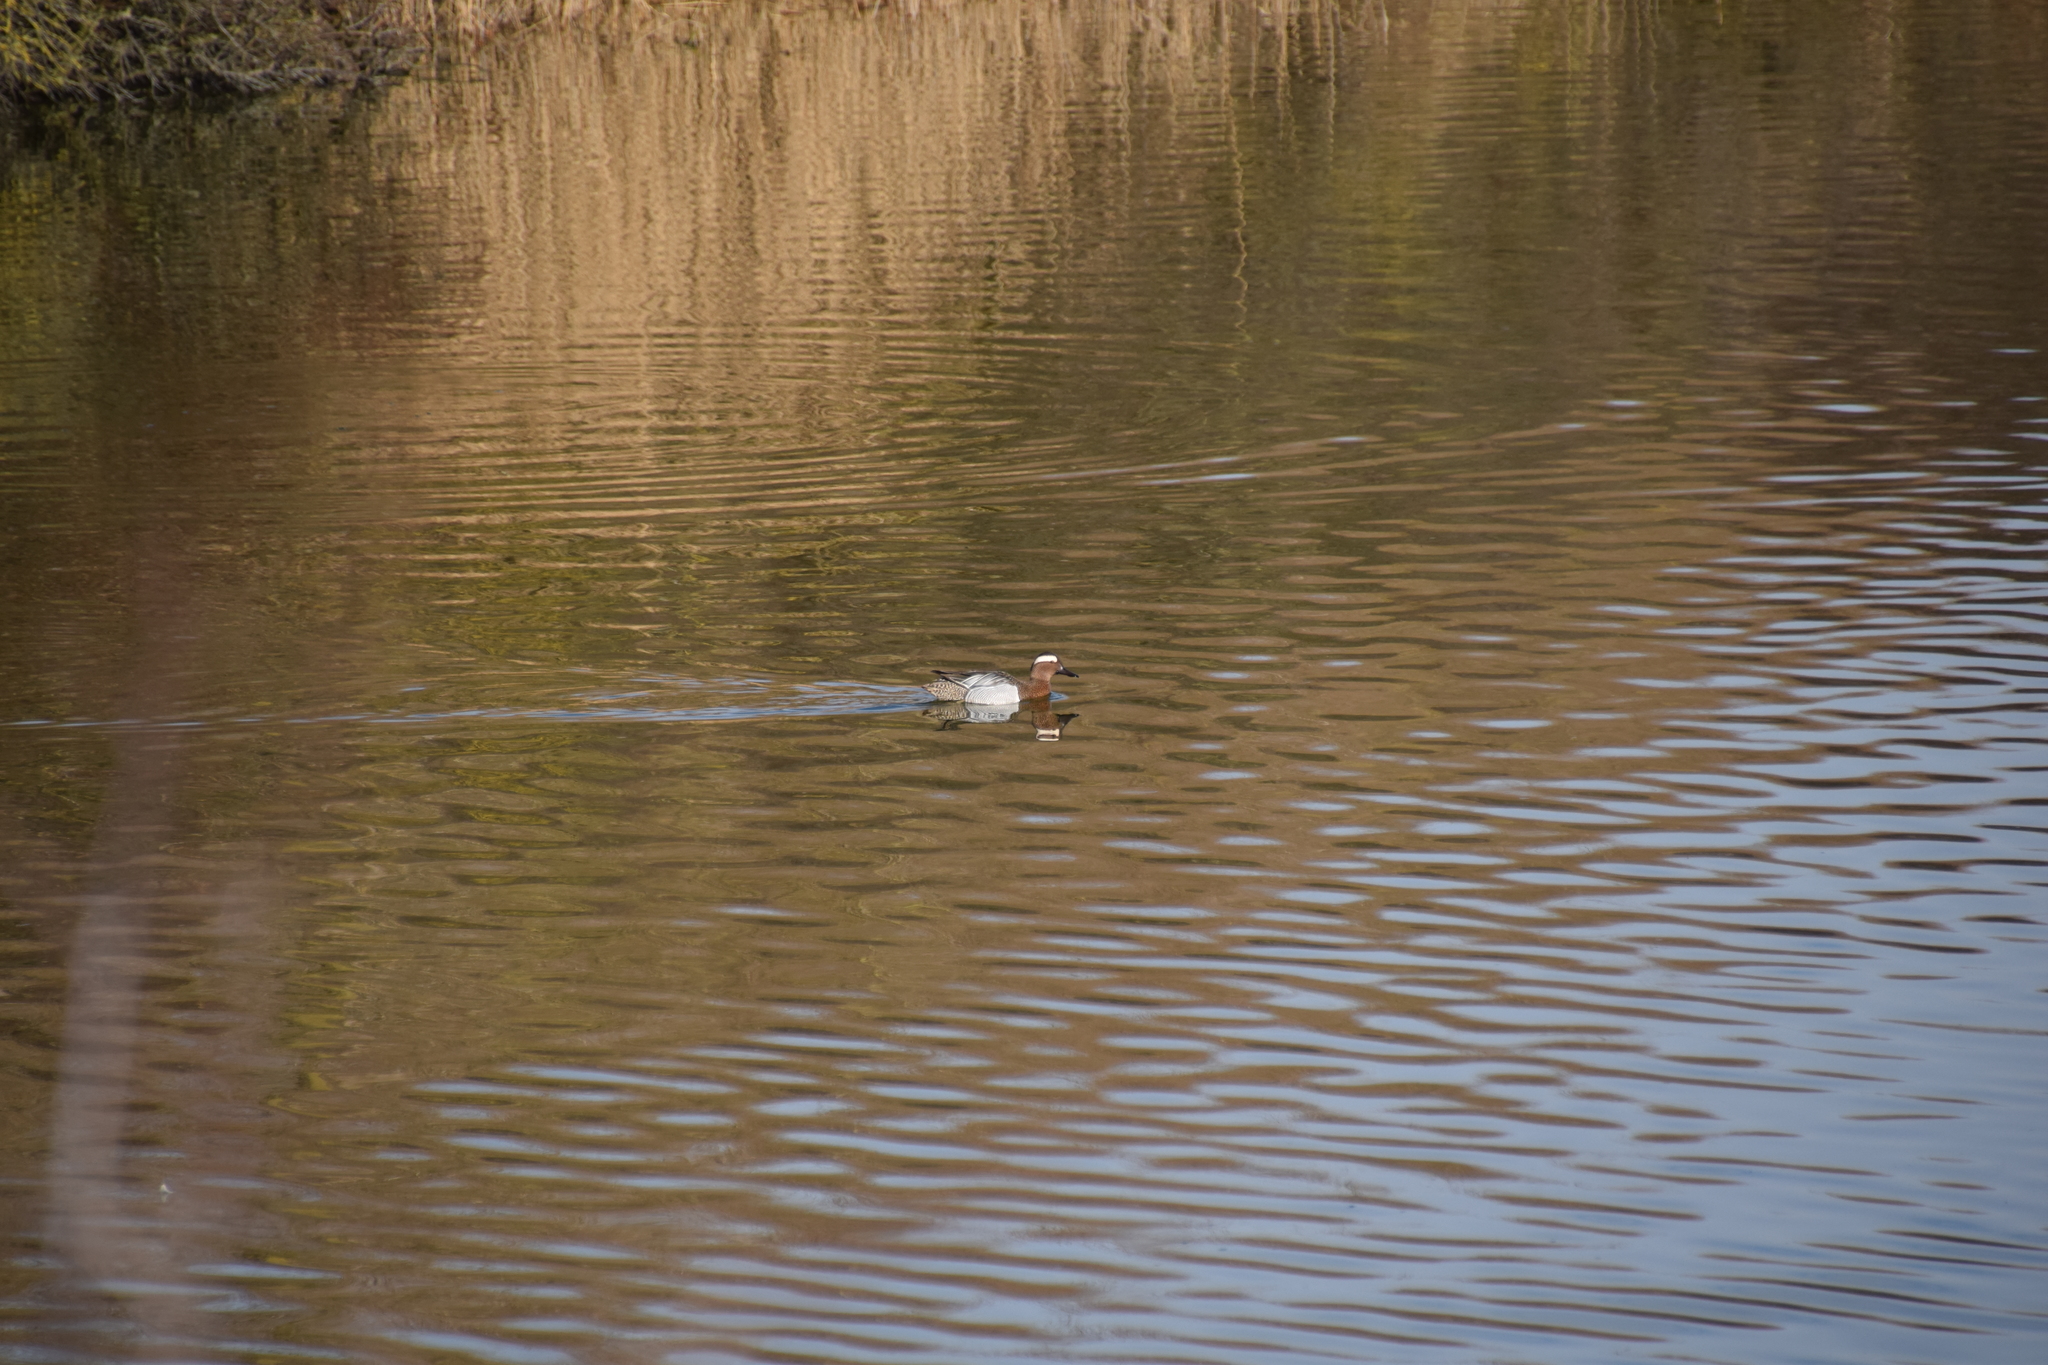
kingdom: Animalia
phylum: Chordata
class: Aves
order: Anseriformes
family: Anatidae
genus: Spatula
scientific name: Spatula querquedula
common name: Garganey
